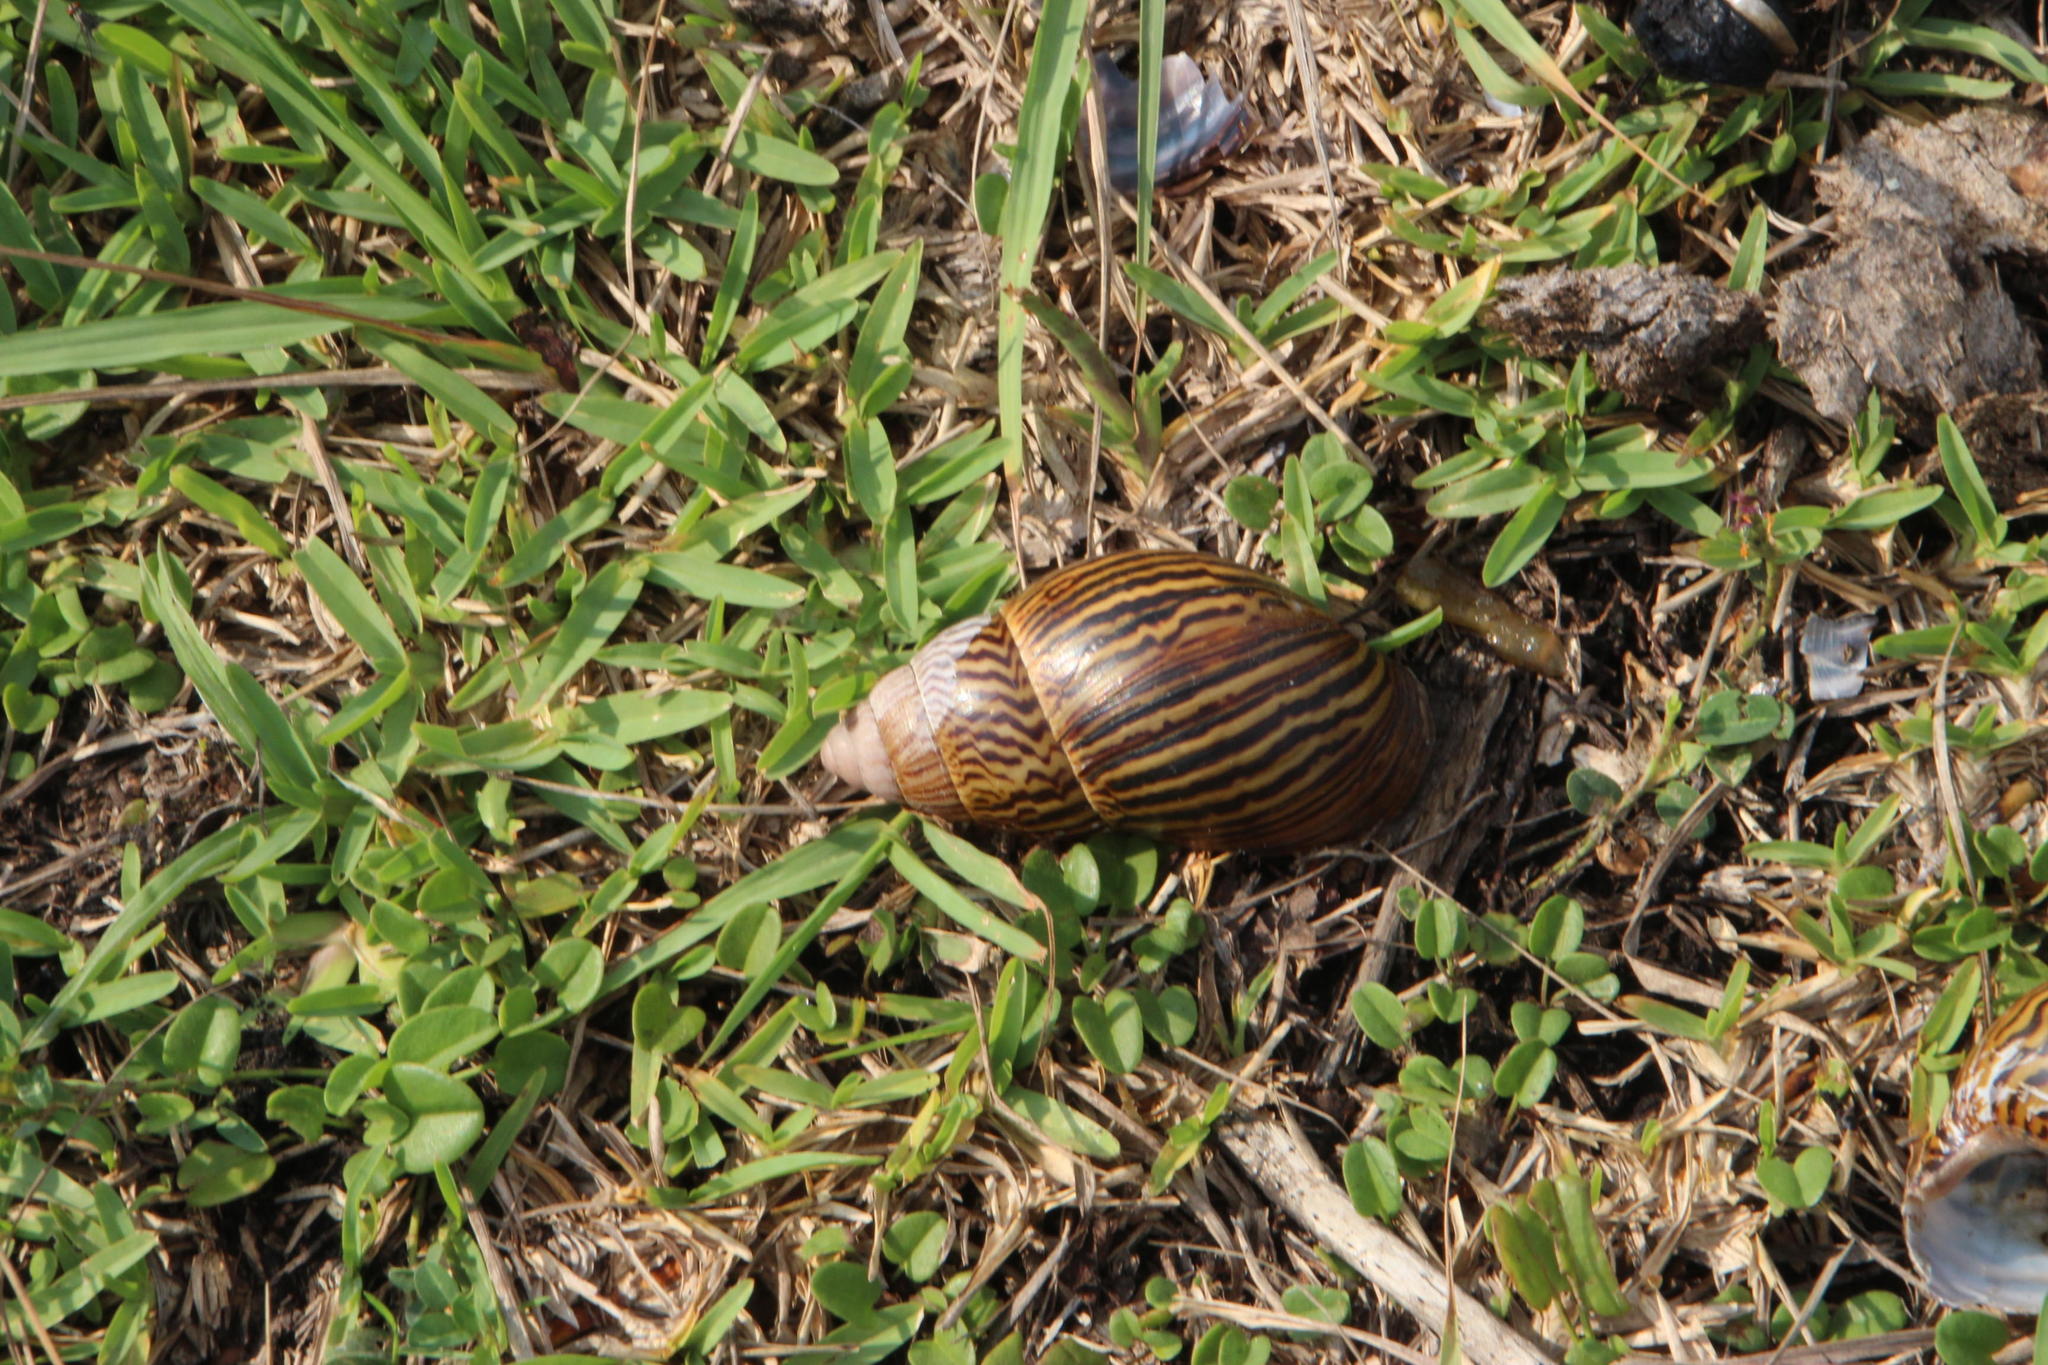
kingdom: Animalia
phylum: Mollusca
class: Gastropoda
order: Stylommatophora
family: Achatinidae
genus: Cochlitoma
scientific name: Cochlitoma zebra
